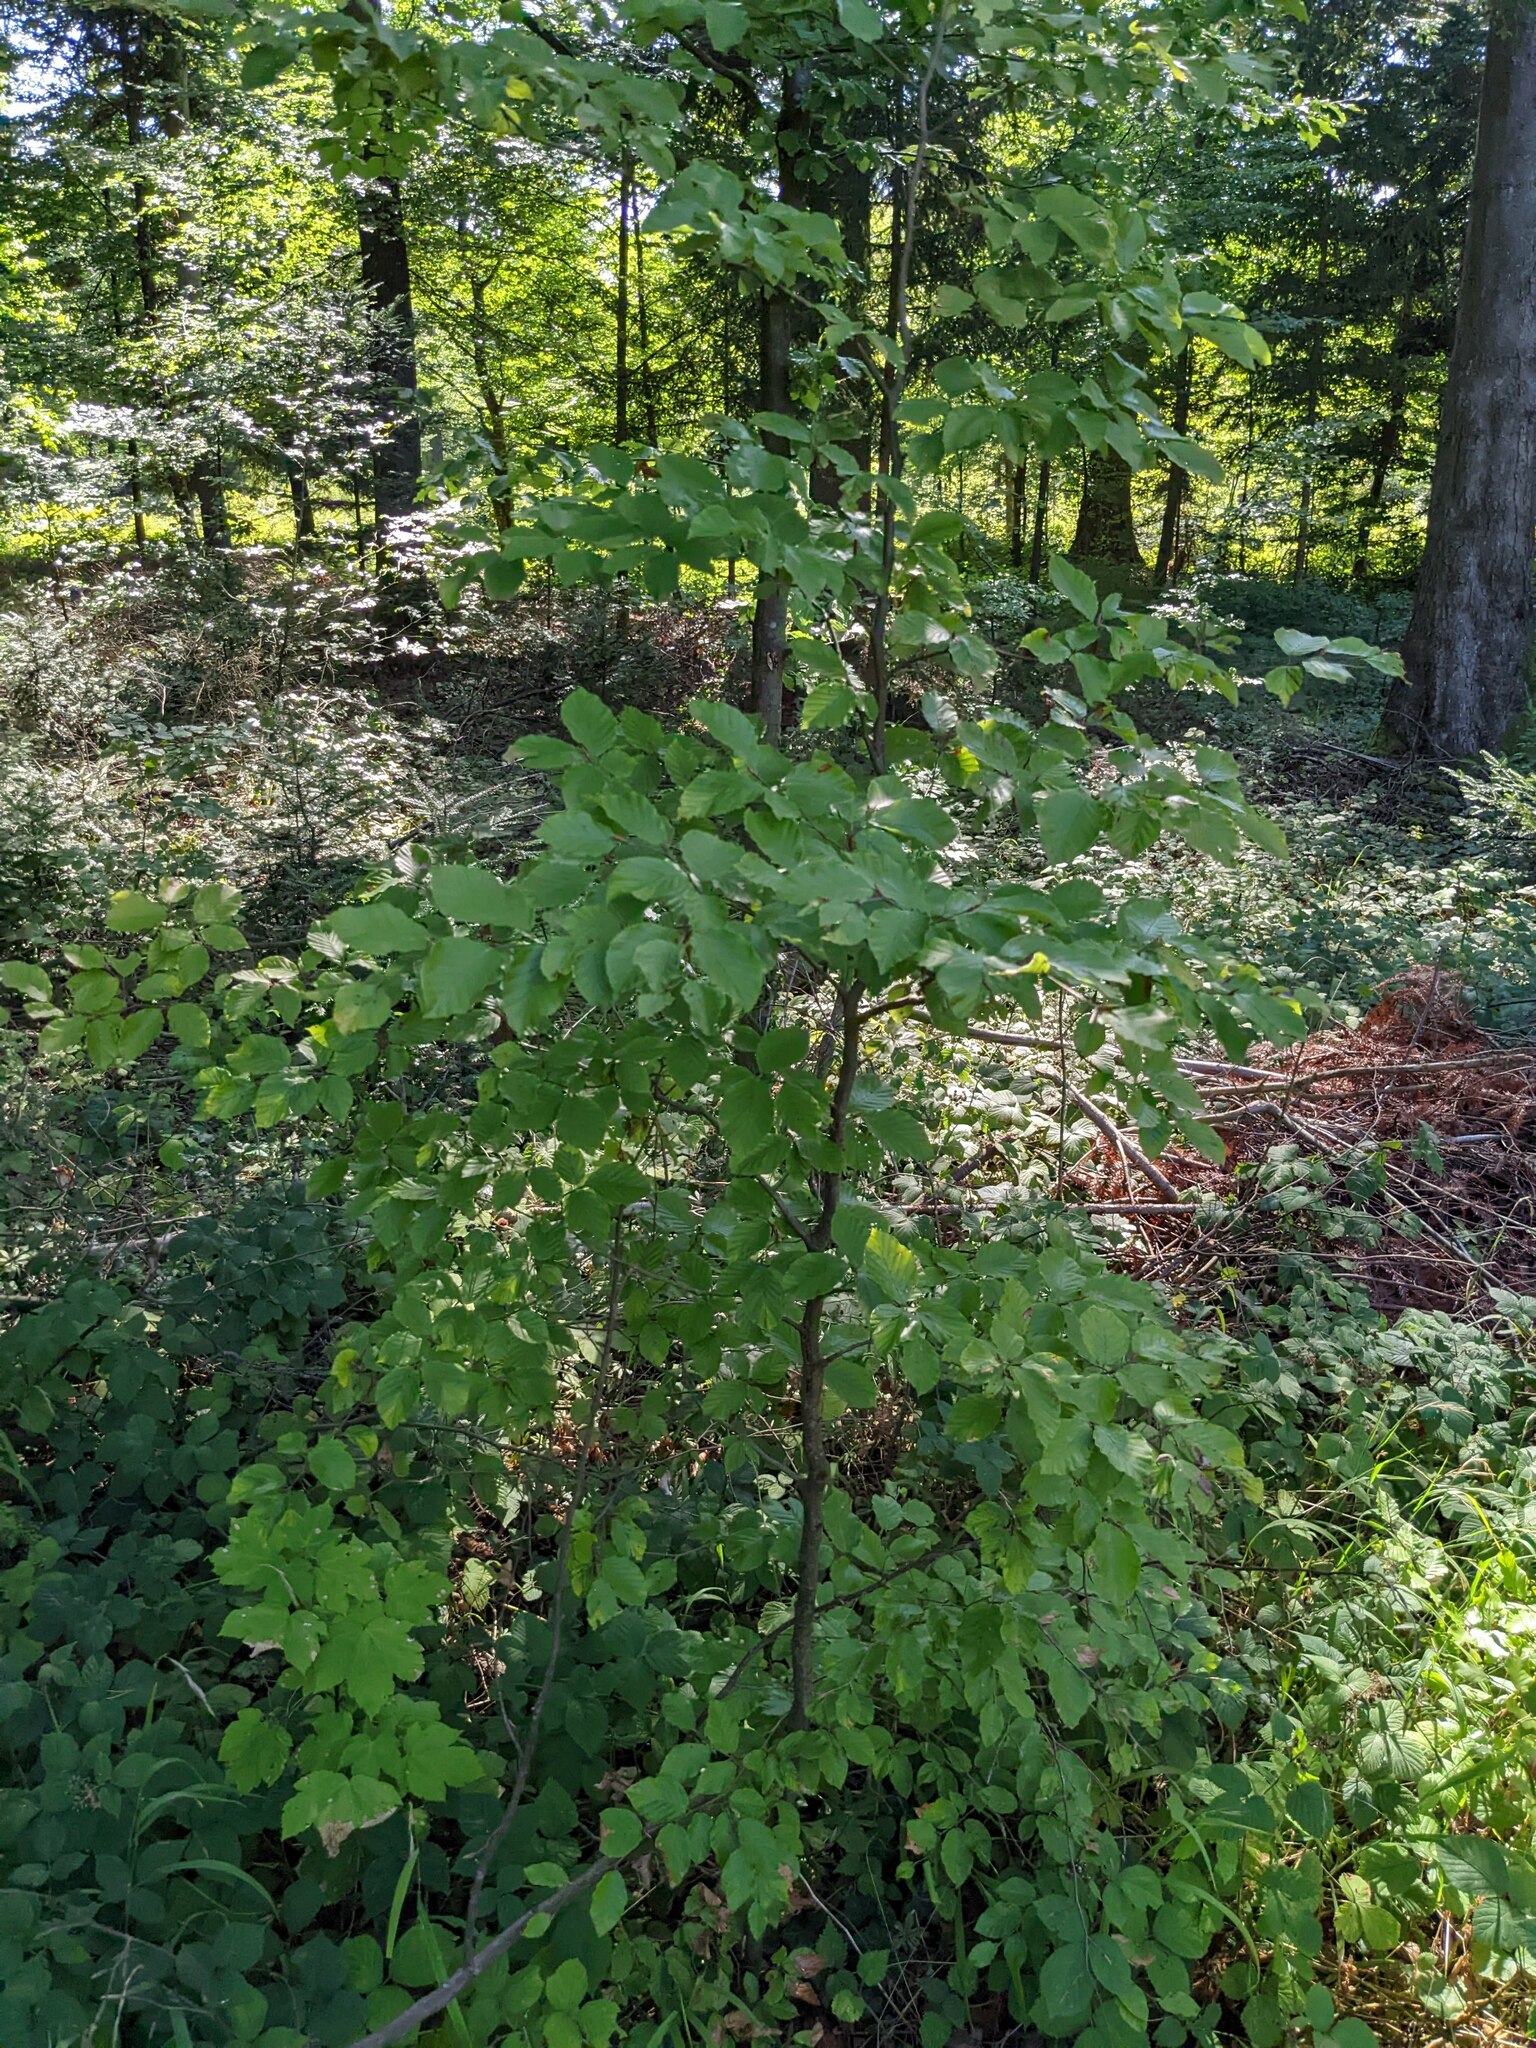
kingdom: Plantae
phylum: Tracheophyta
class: Magnoliopsida
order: Fagales
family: Fagaceae
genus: Fagus
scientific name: Fagus sylvatica
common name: Beech
